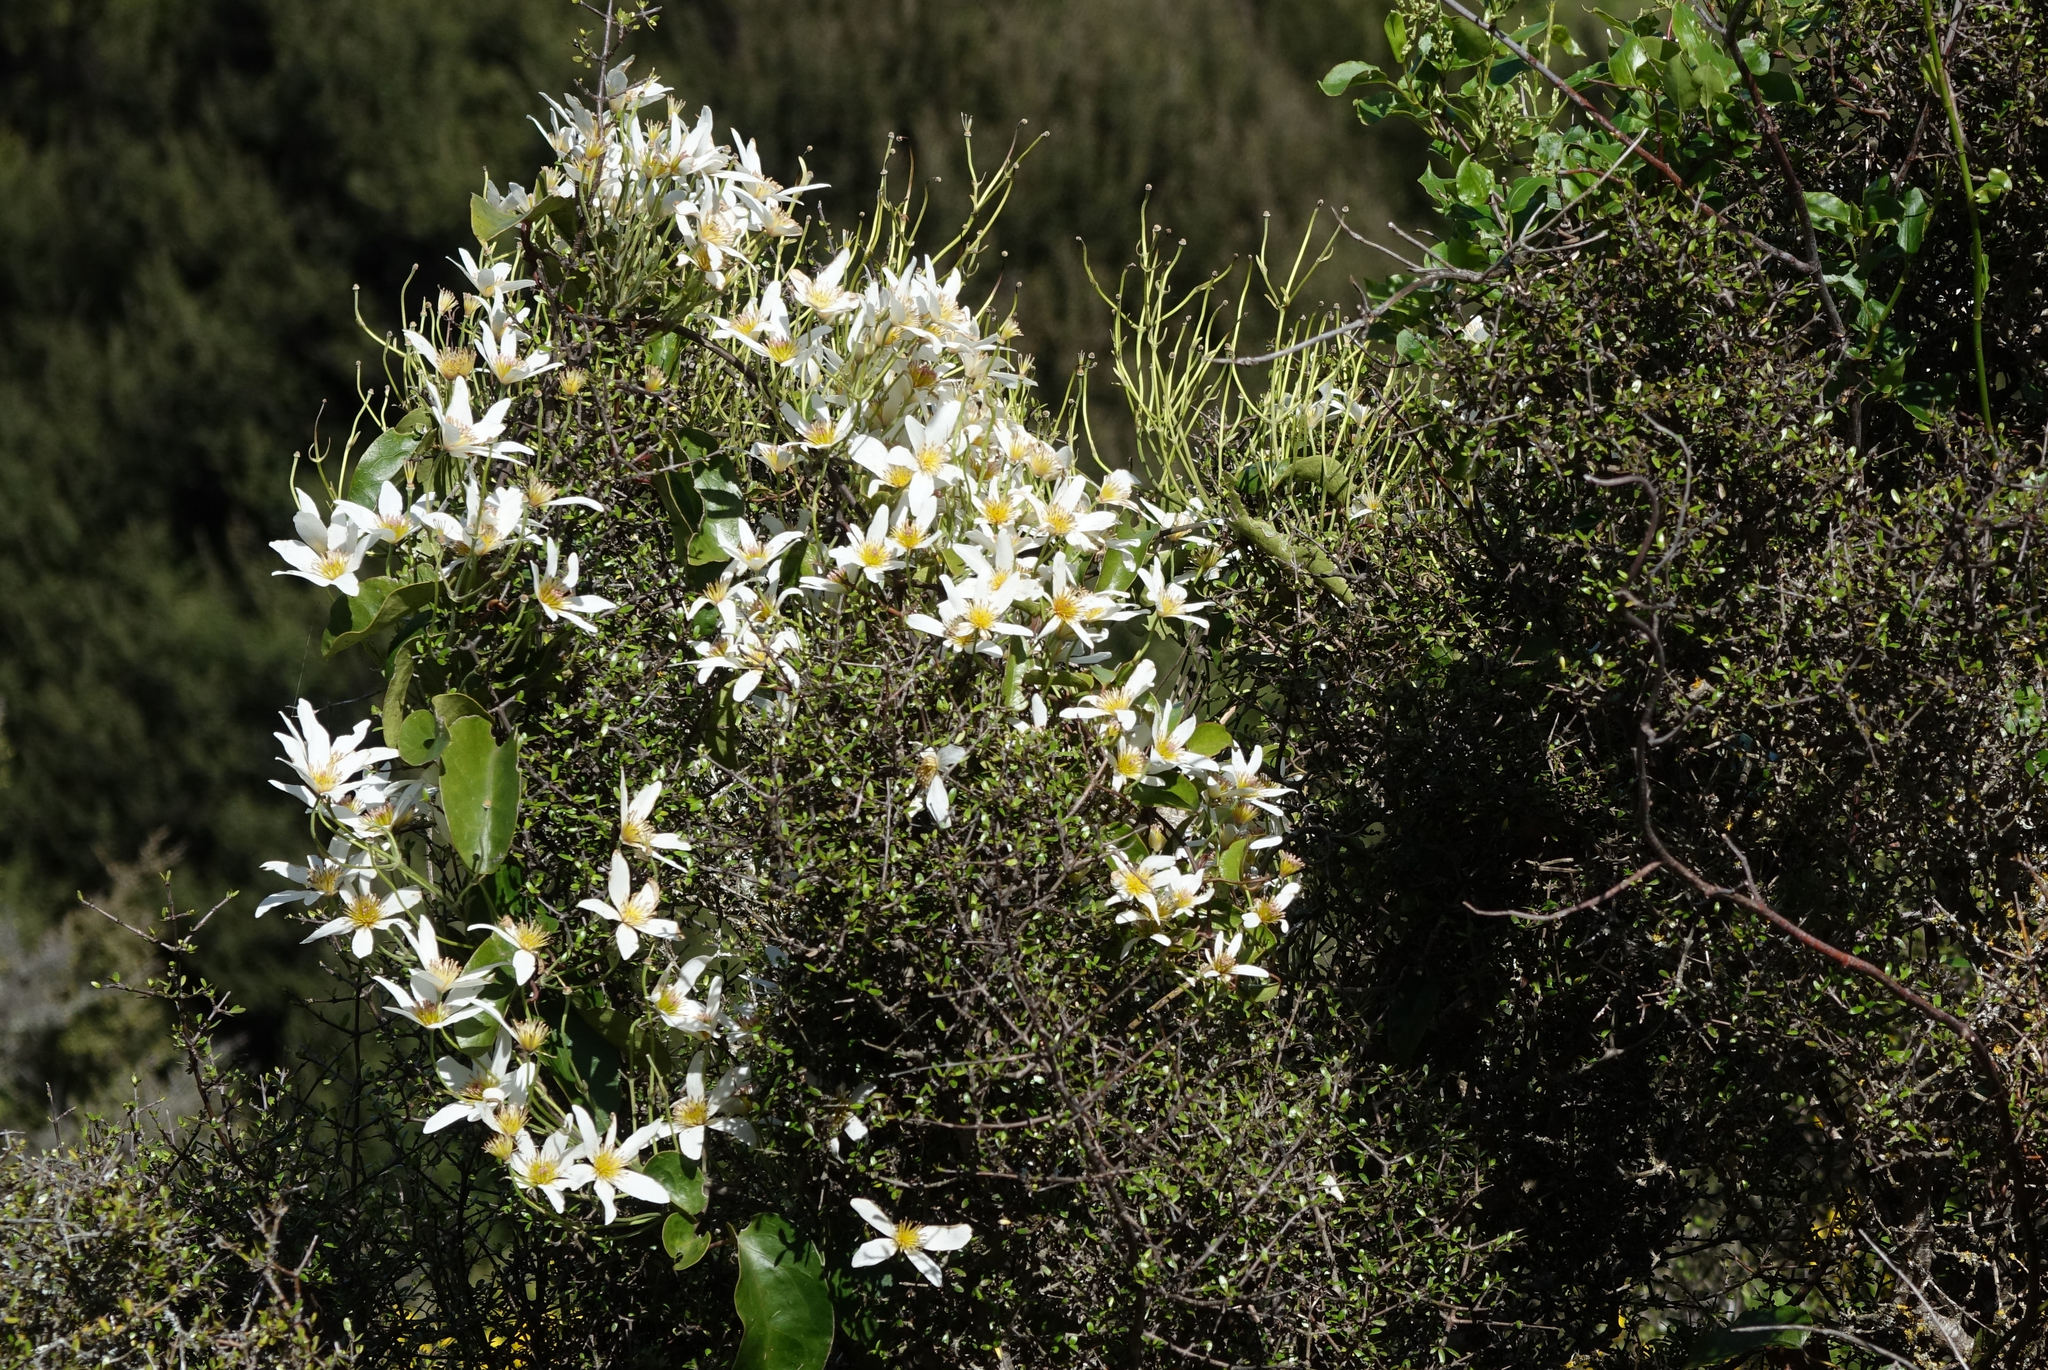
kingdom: Plantae
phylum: Tracheophyta
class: Magnoliopsida
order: Ranunculales
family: Ranunculaceae
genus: Clematis
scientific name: Clematis paniculata
